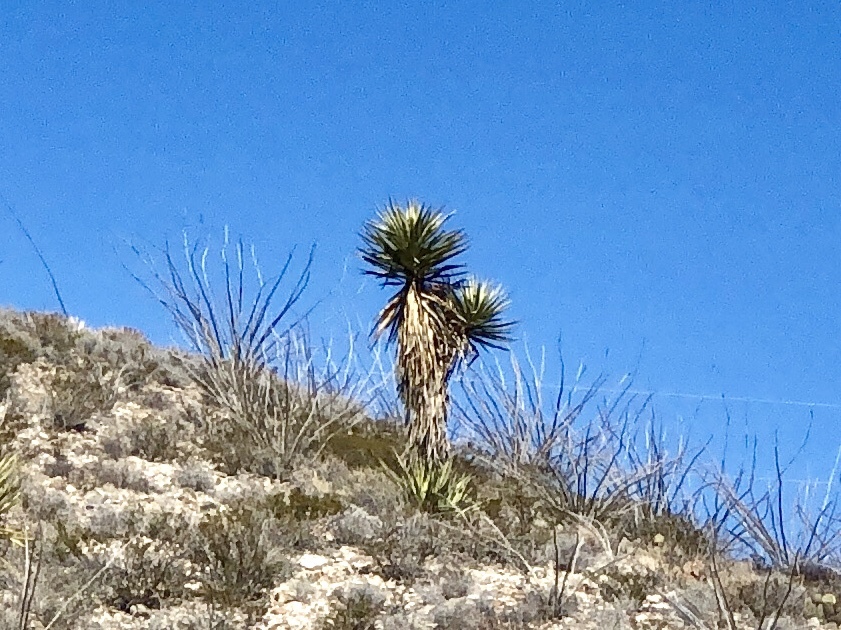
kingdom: Plantae
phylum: Tracheophyta
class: Liliopsida
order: Asparagales
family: Asparagaceae
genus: Yucca
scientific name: Yucca treculiana
